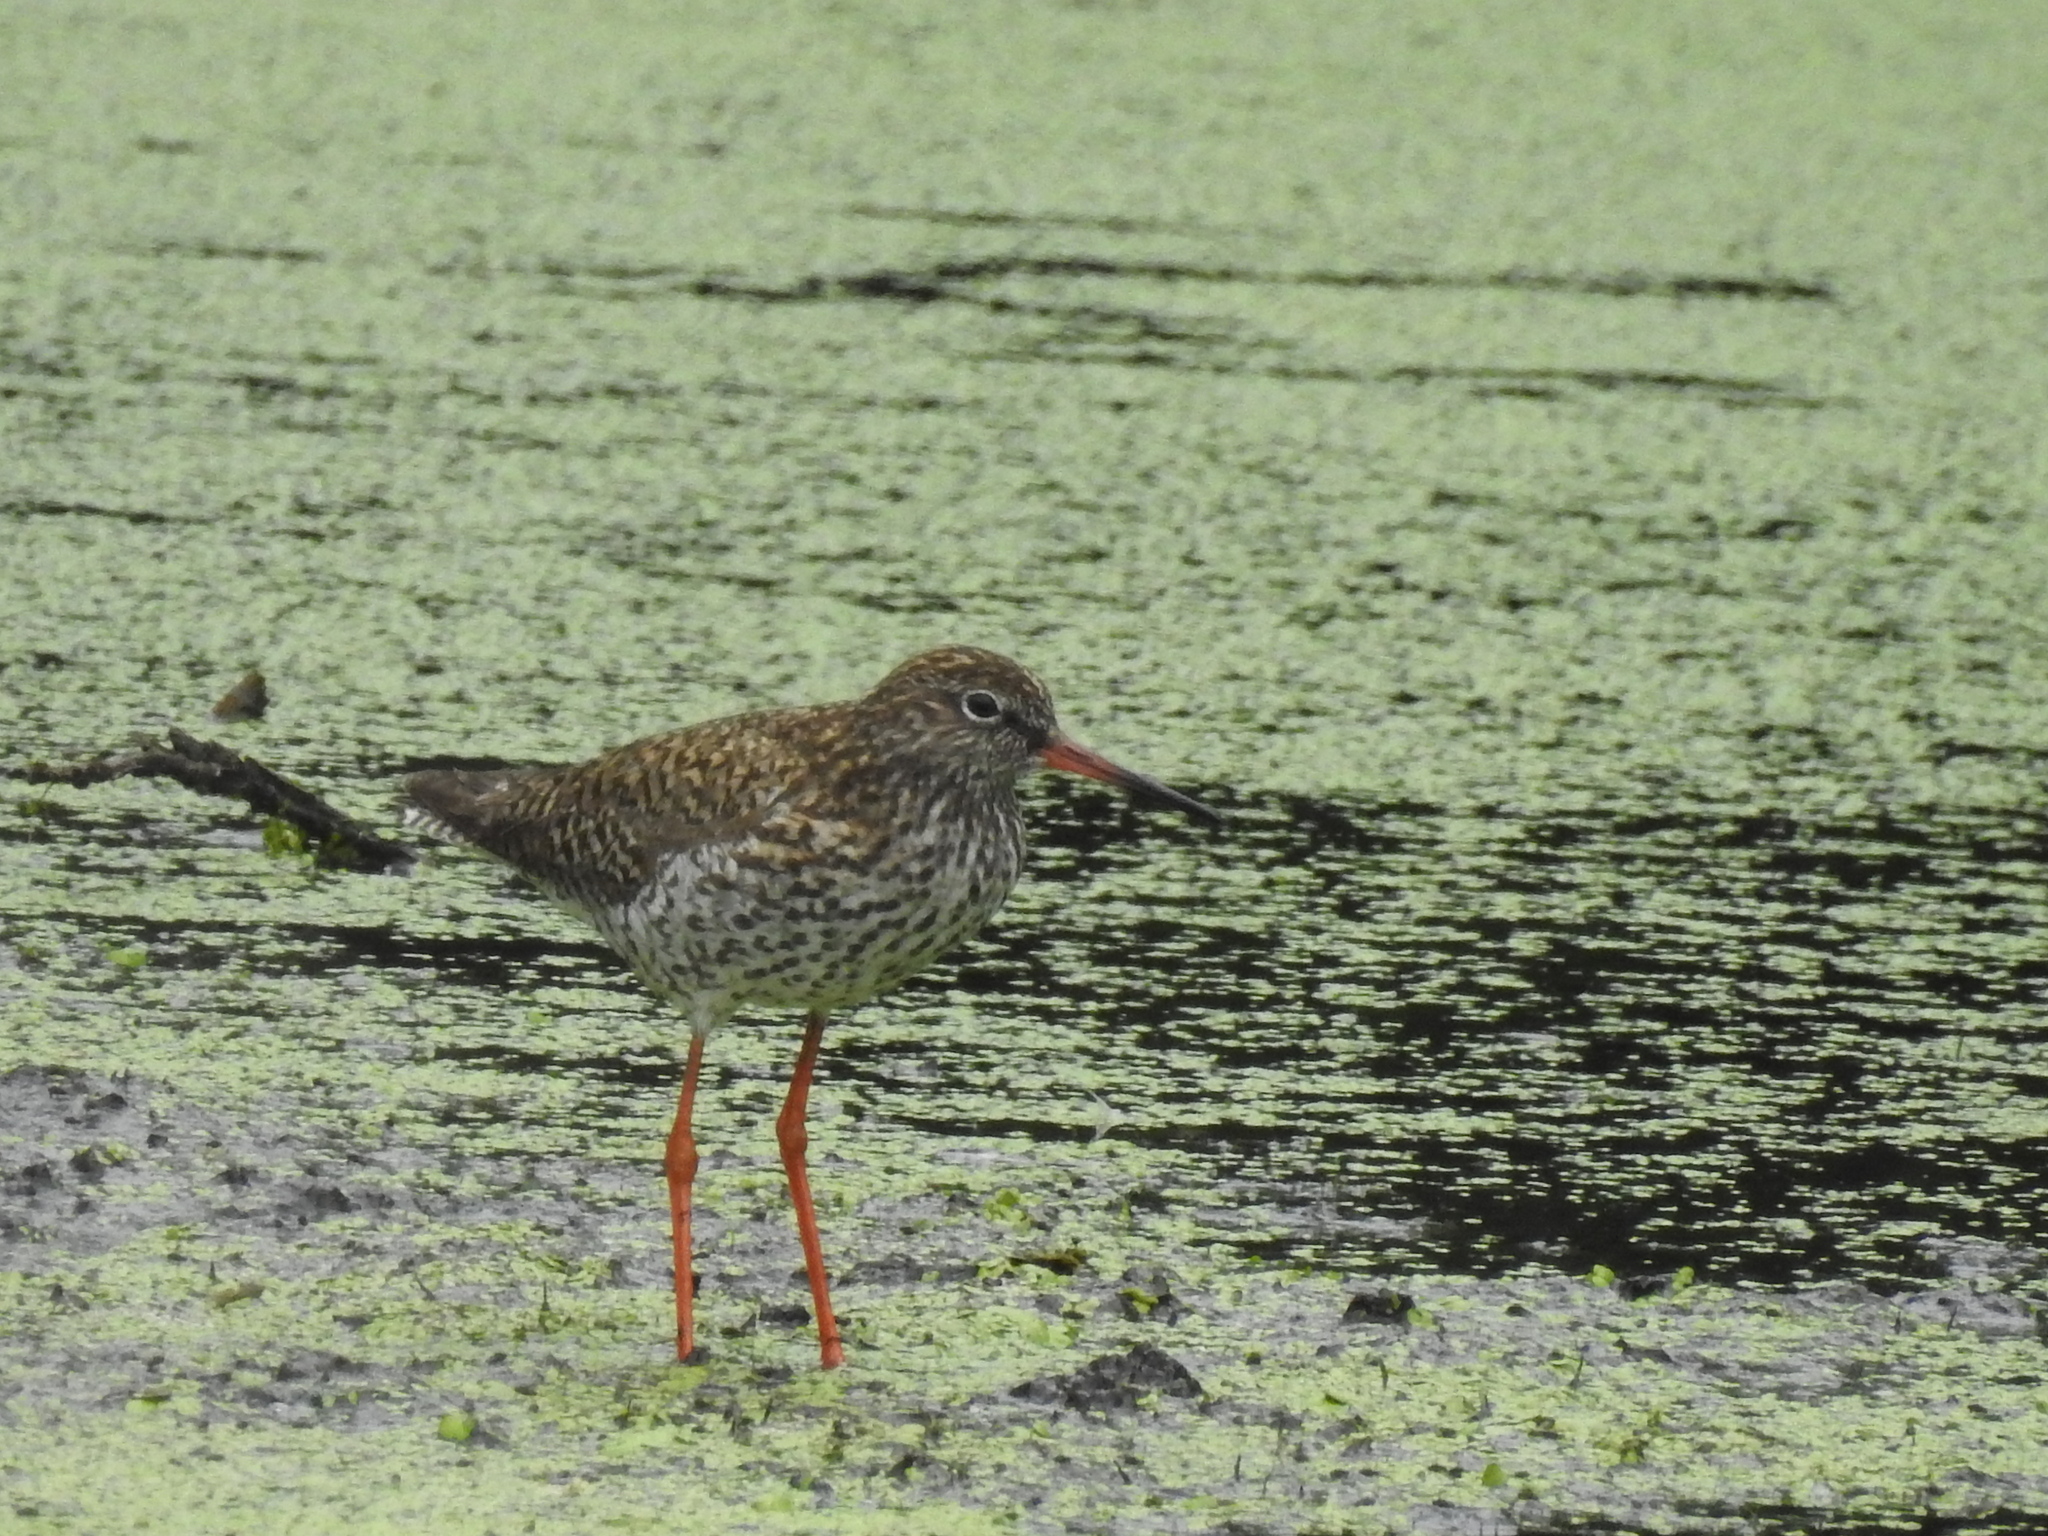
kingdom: Animalia
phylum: Chordata
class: Aves
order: Charadriiformes
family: Scolopacidae
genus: Tringa
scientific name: Tringa totanus
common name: Common redshank
